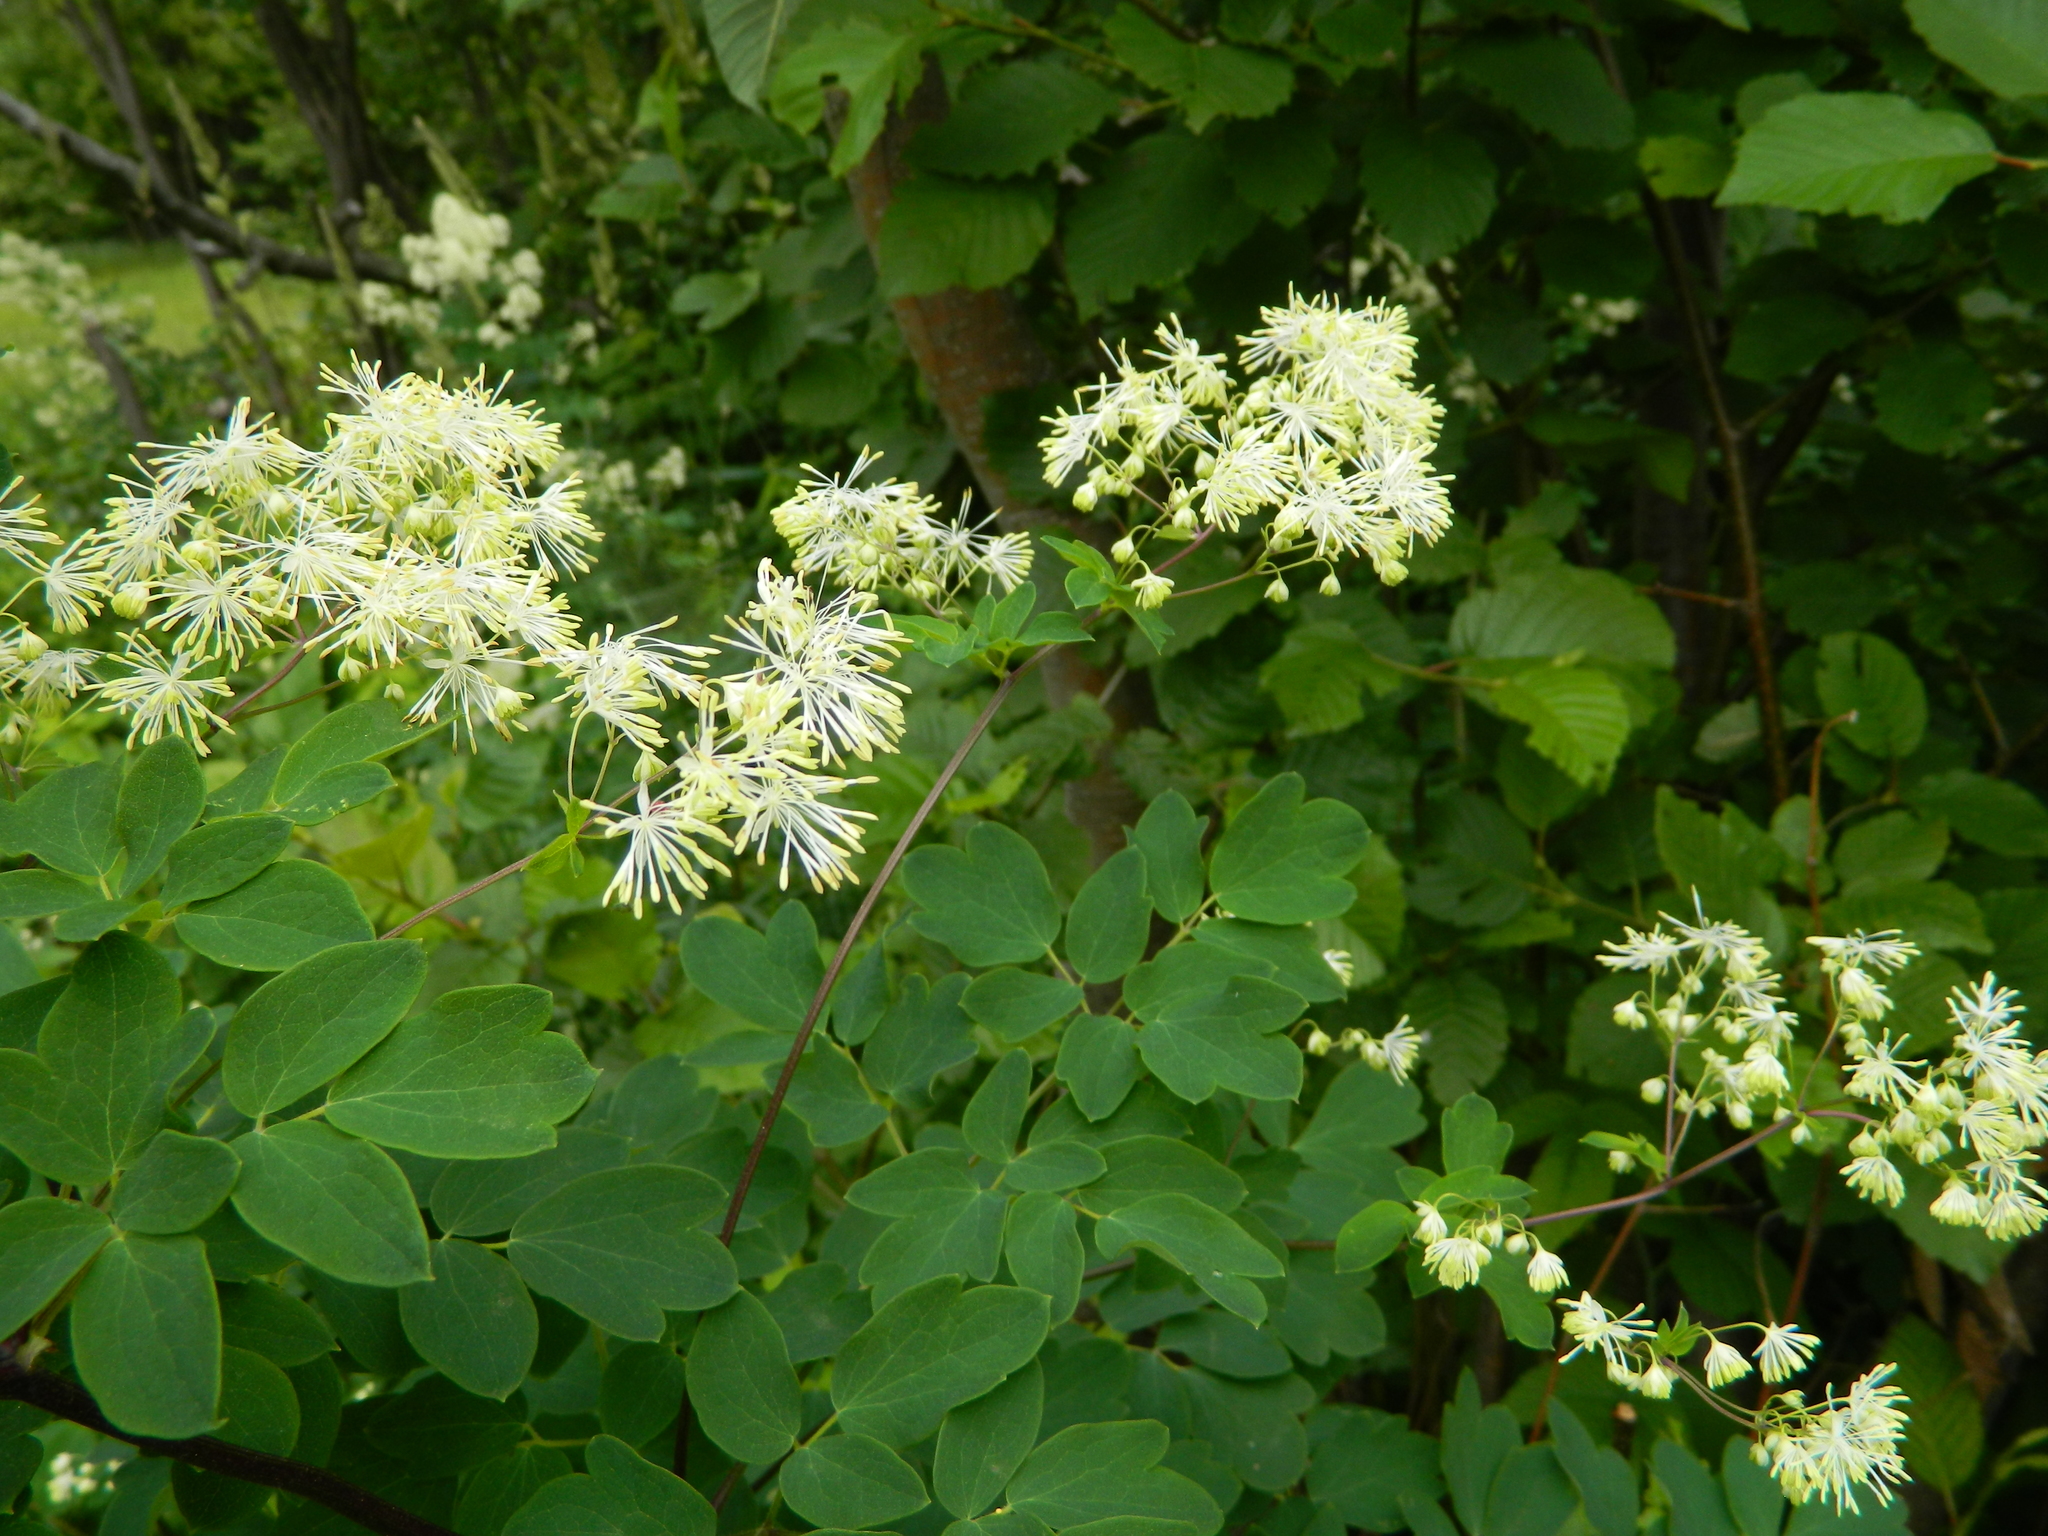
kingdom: Plantae
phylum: Tracheophyta
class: Magnoliopsida
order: Ranunculales
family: Ranunculaceae
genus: Thalictrum
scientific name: Thalictrum pubescens
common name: King-of-the-meadow
